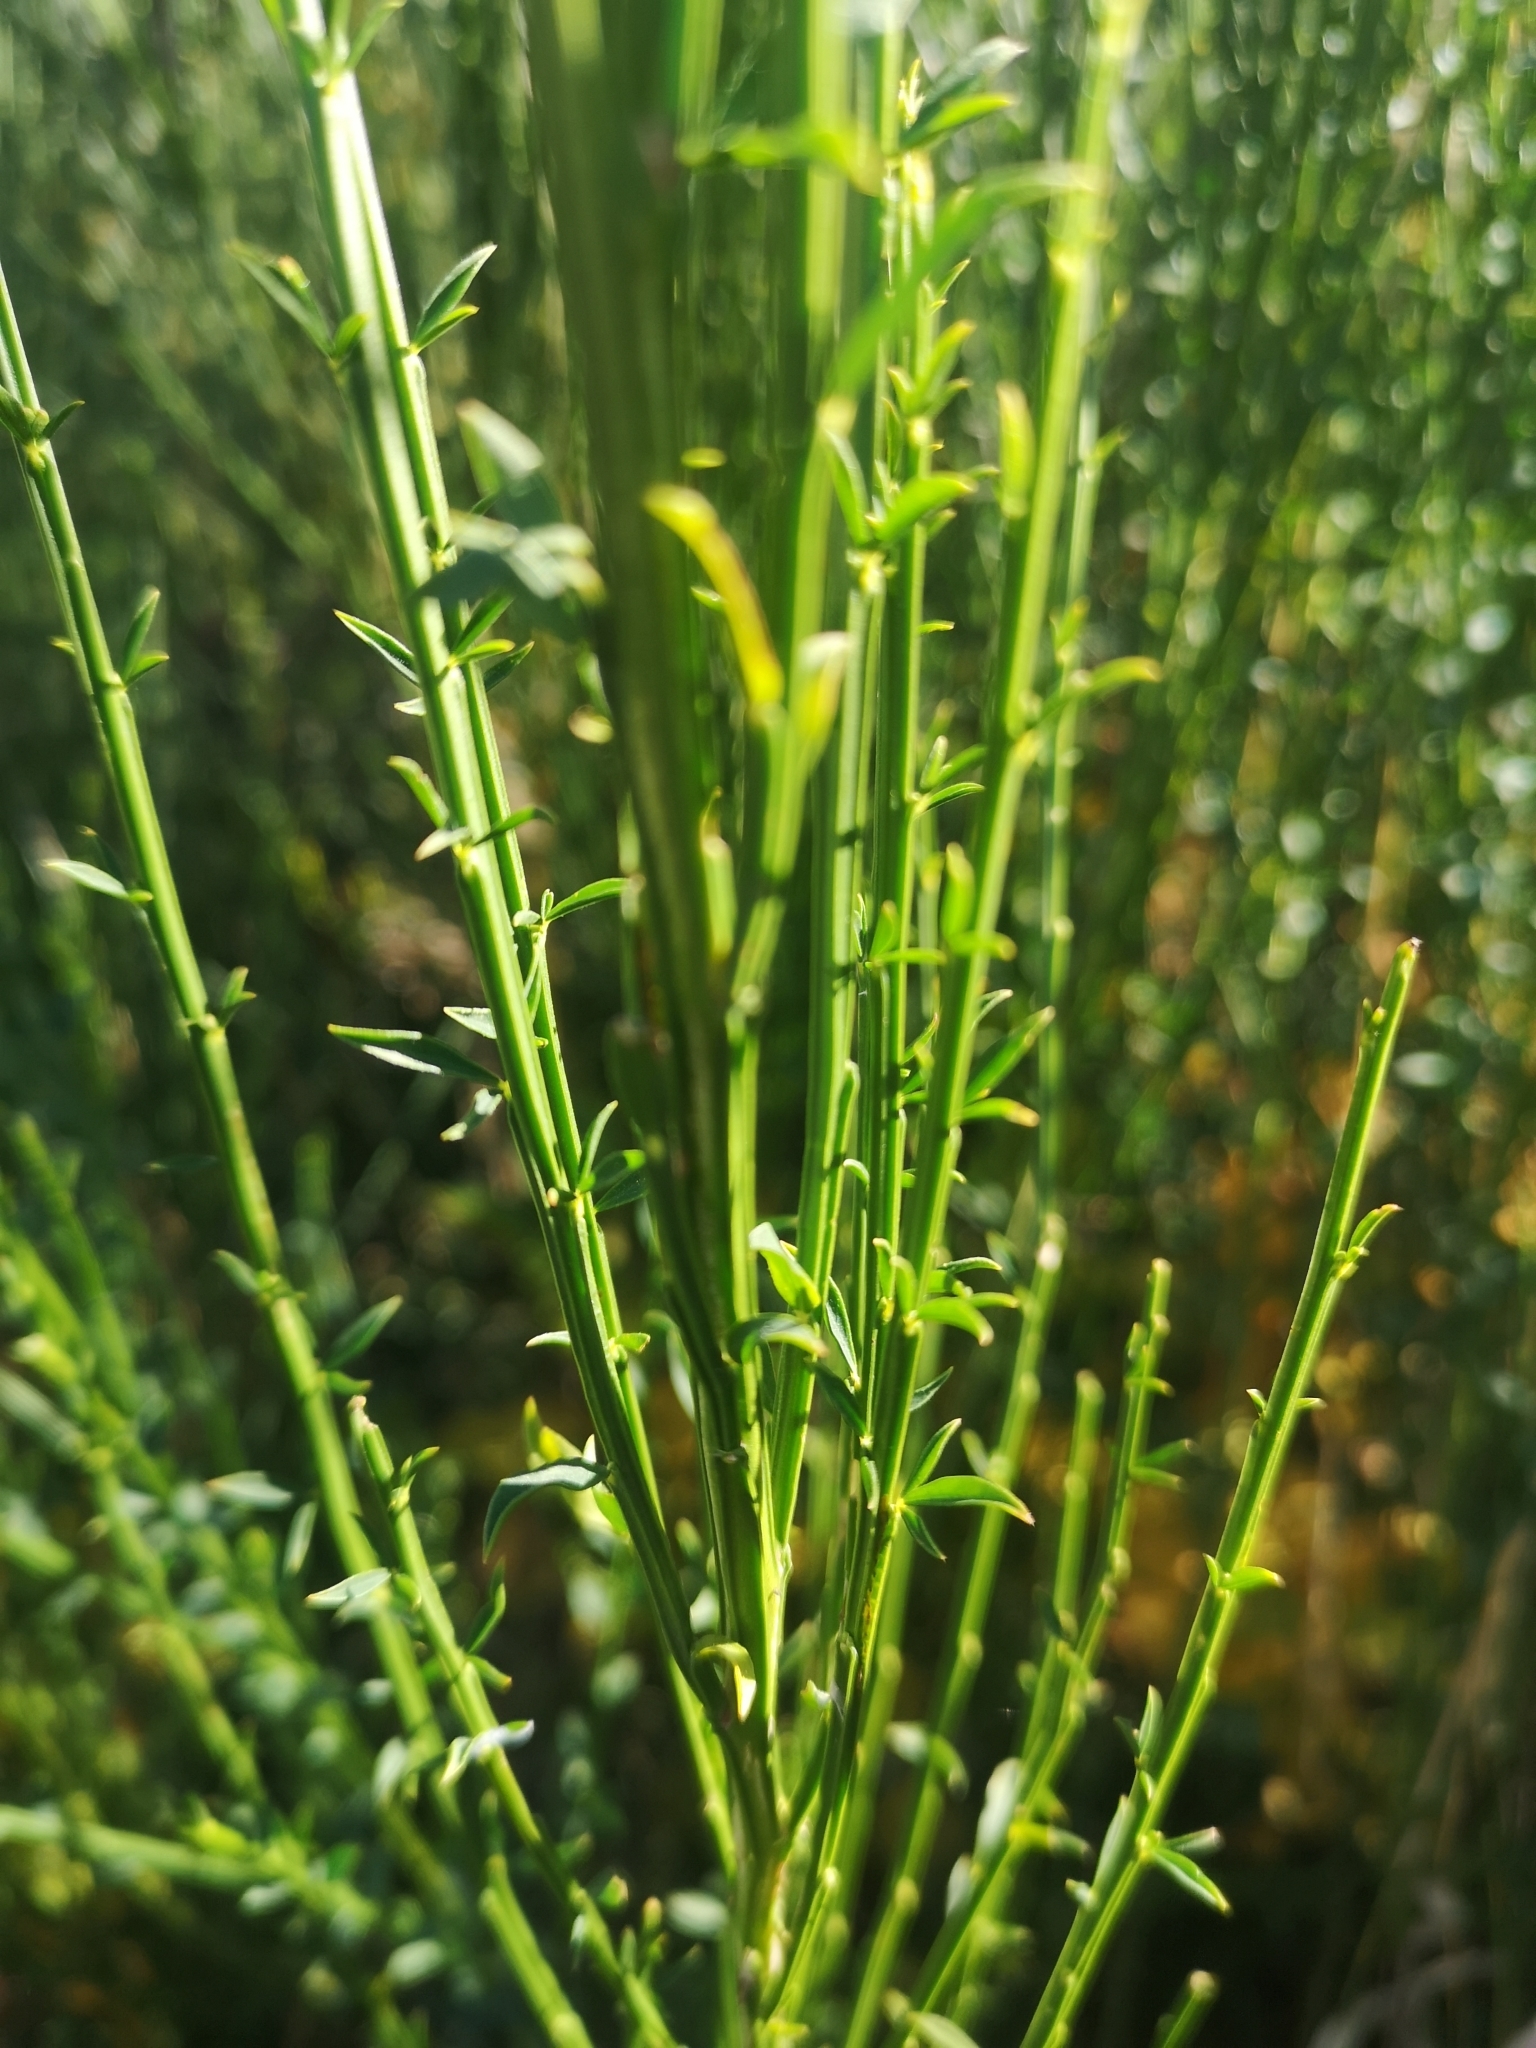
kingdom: Plantae
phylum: Tracheophyta
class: Magnoliopsida
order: Fabales
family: Fabaceae
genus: Cytisus
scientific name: Cytisus scoparius
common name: Scotch broom
